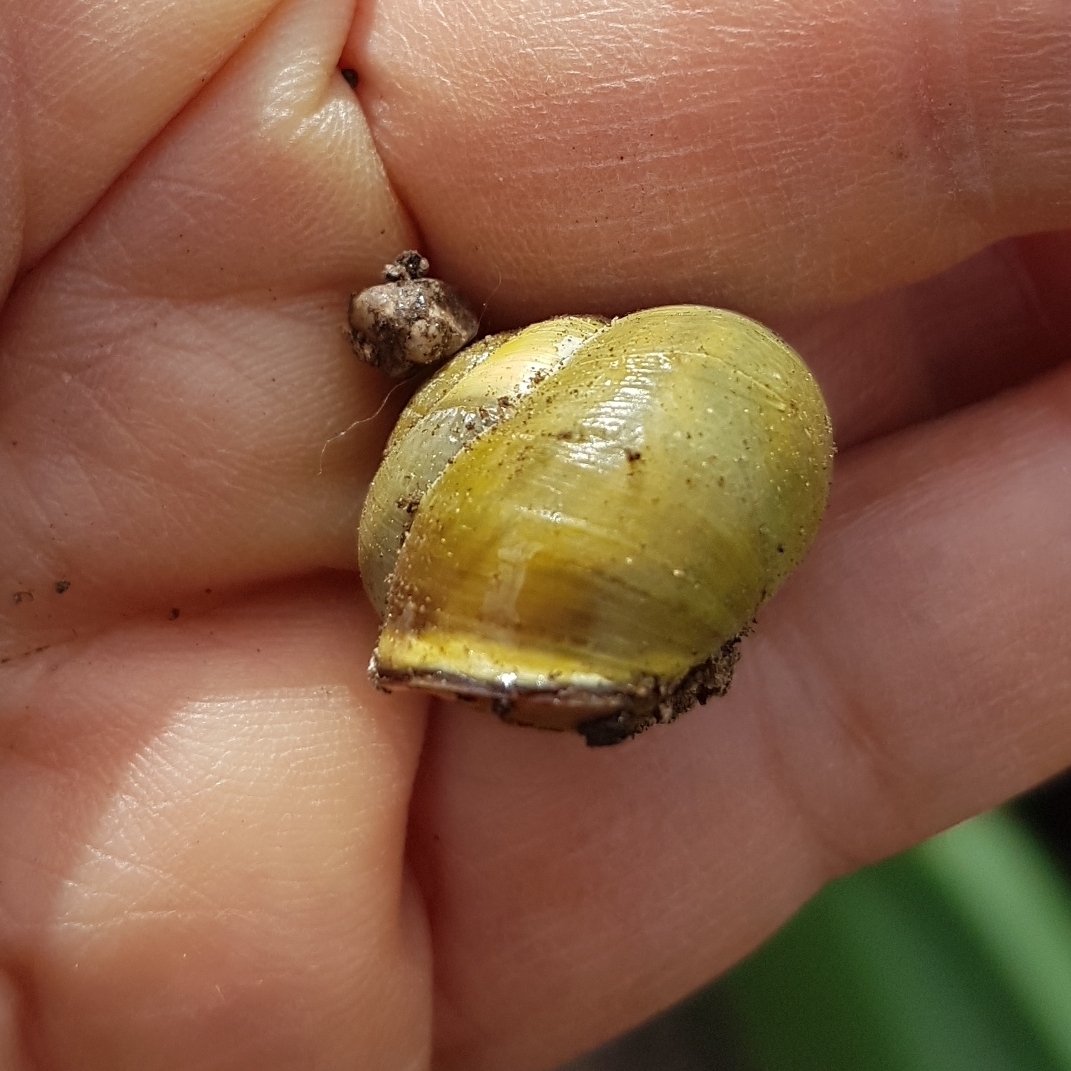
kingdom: Animalia
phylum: Mollusca
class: Gastropoda
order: Stylommatophora
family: Helicidae
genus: Cepaea
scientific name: Cepaea nemoralis
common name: Grovesnail
